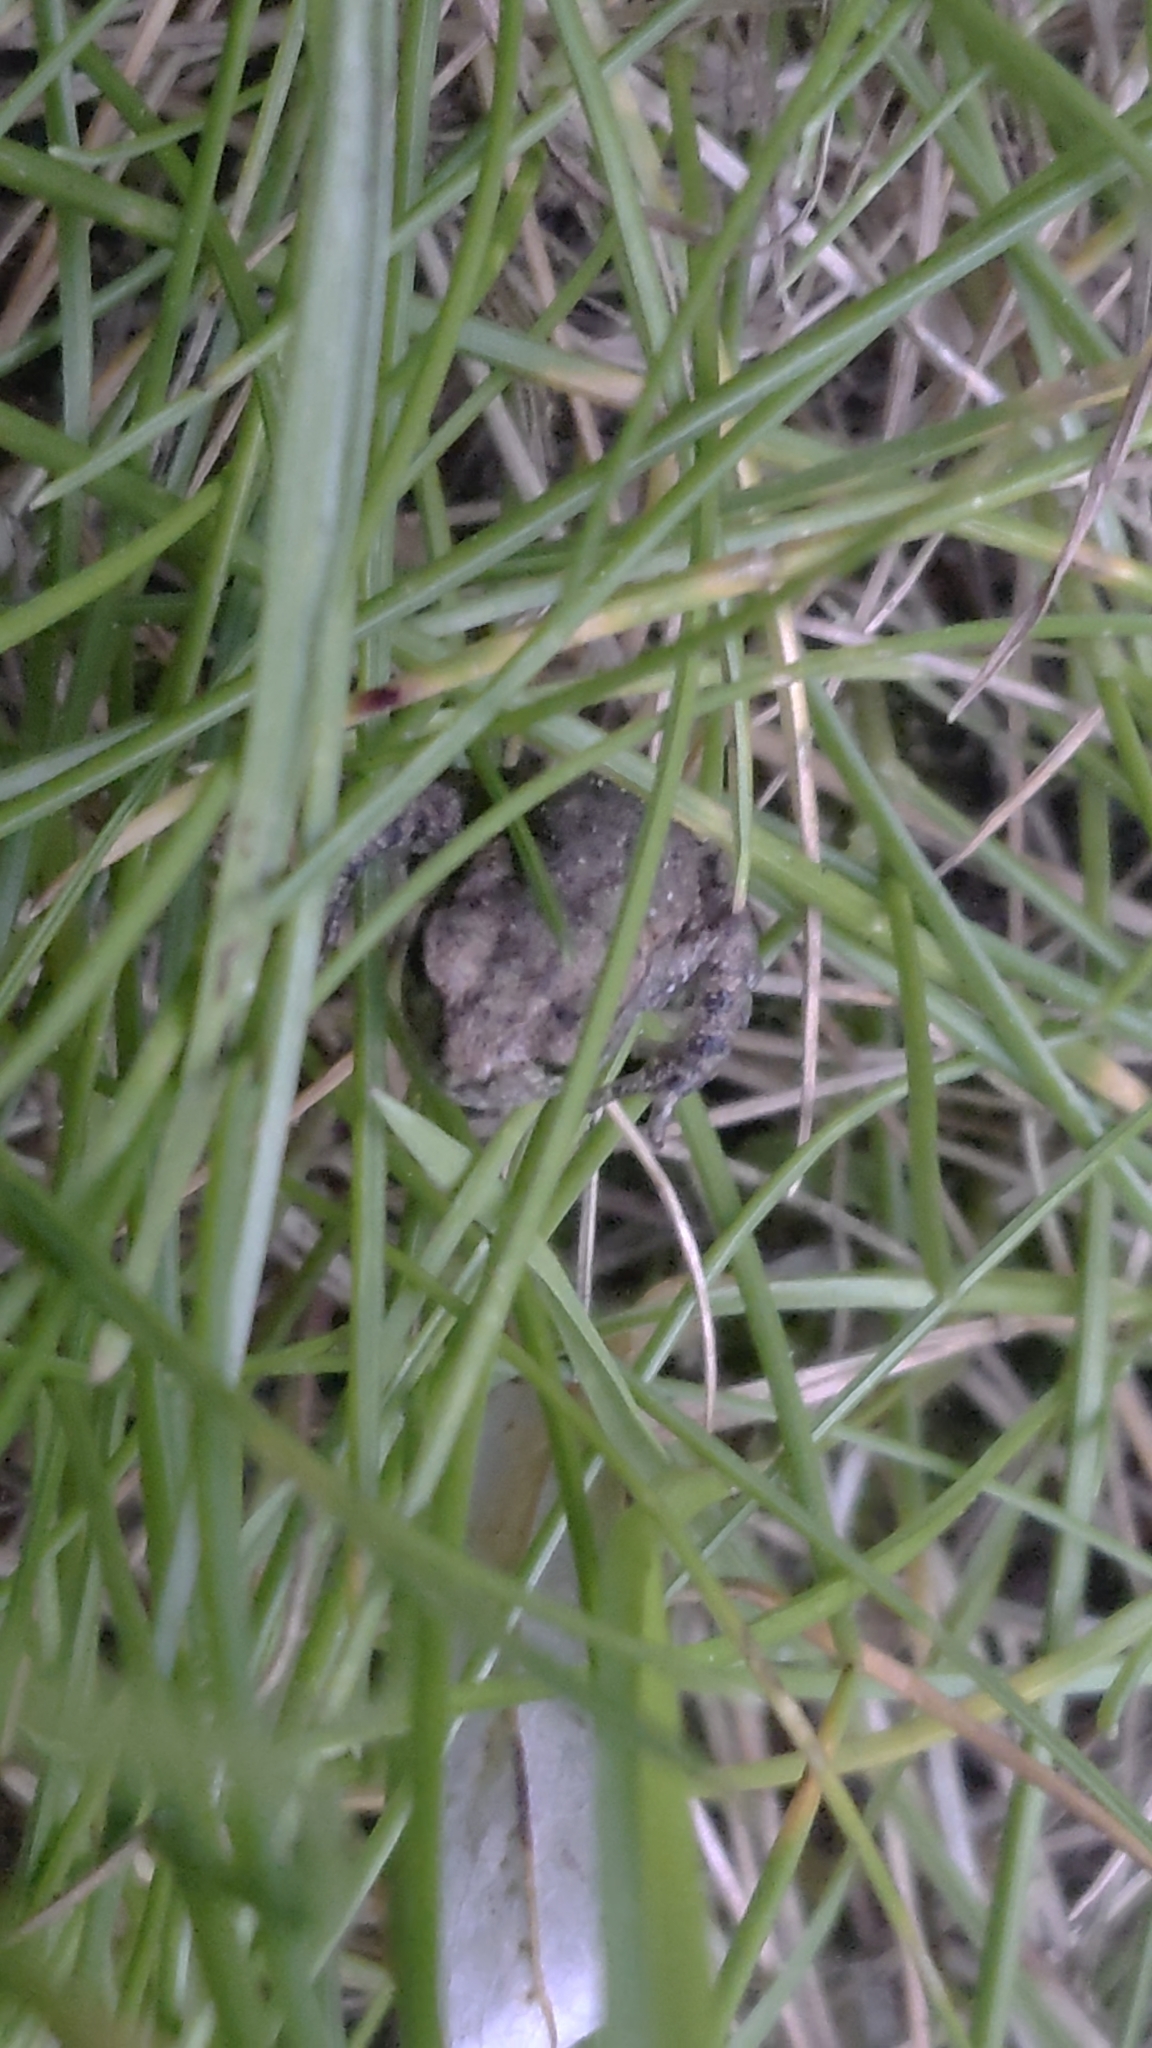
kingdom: Animalia
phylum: Chordata
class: Amphibia
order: Anura
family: Bufonidae
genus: Bufo
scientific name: Bufo bufo
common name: Common toad
